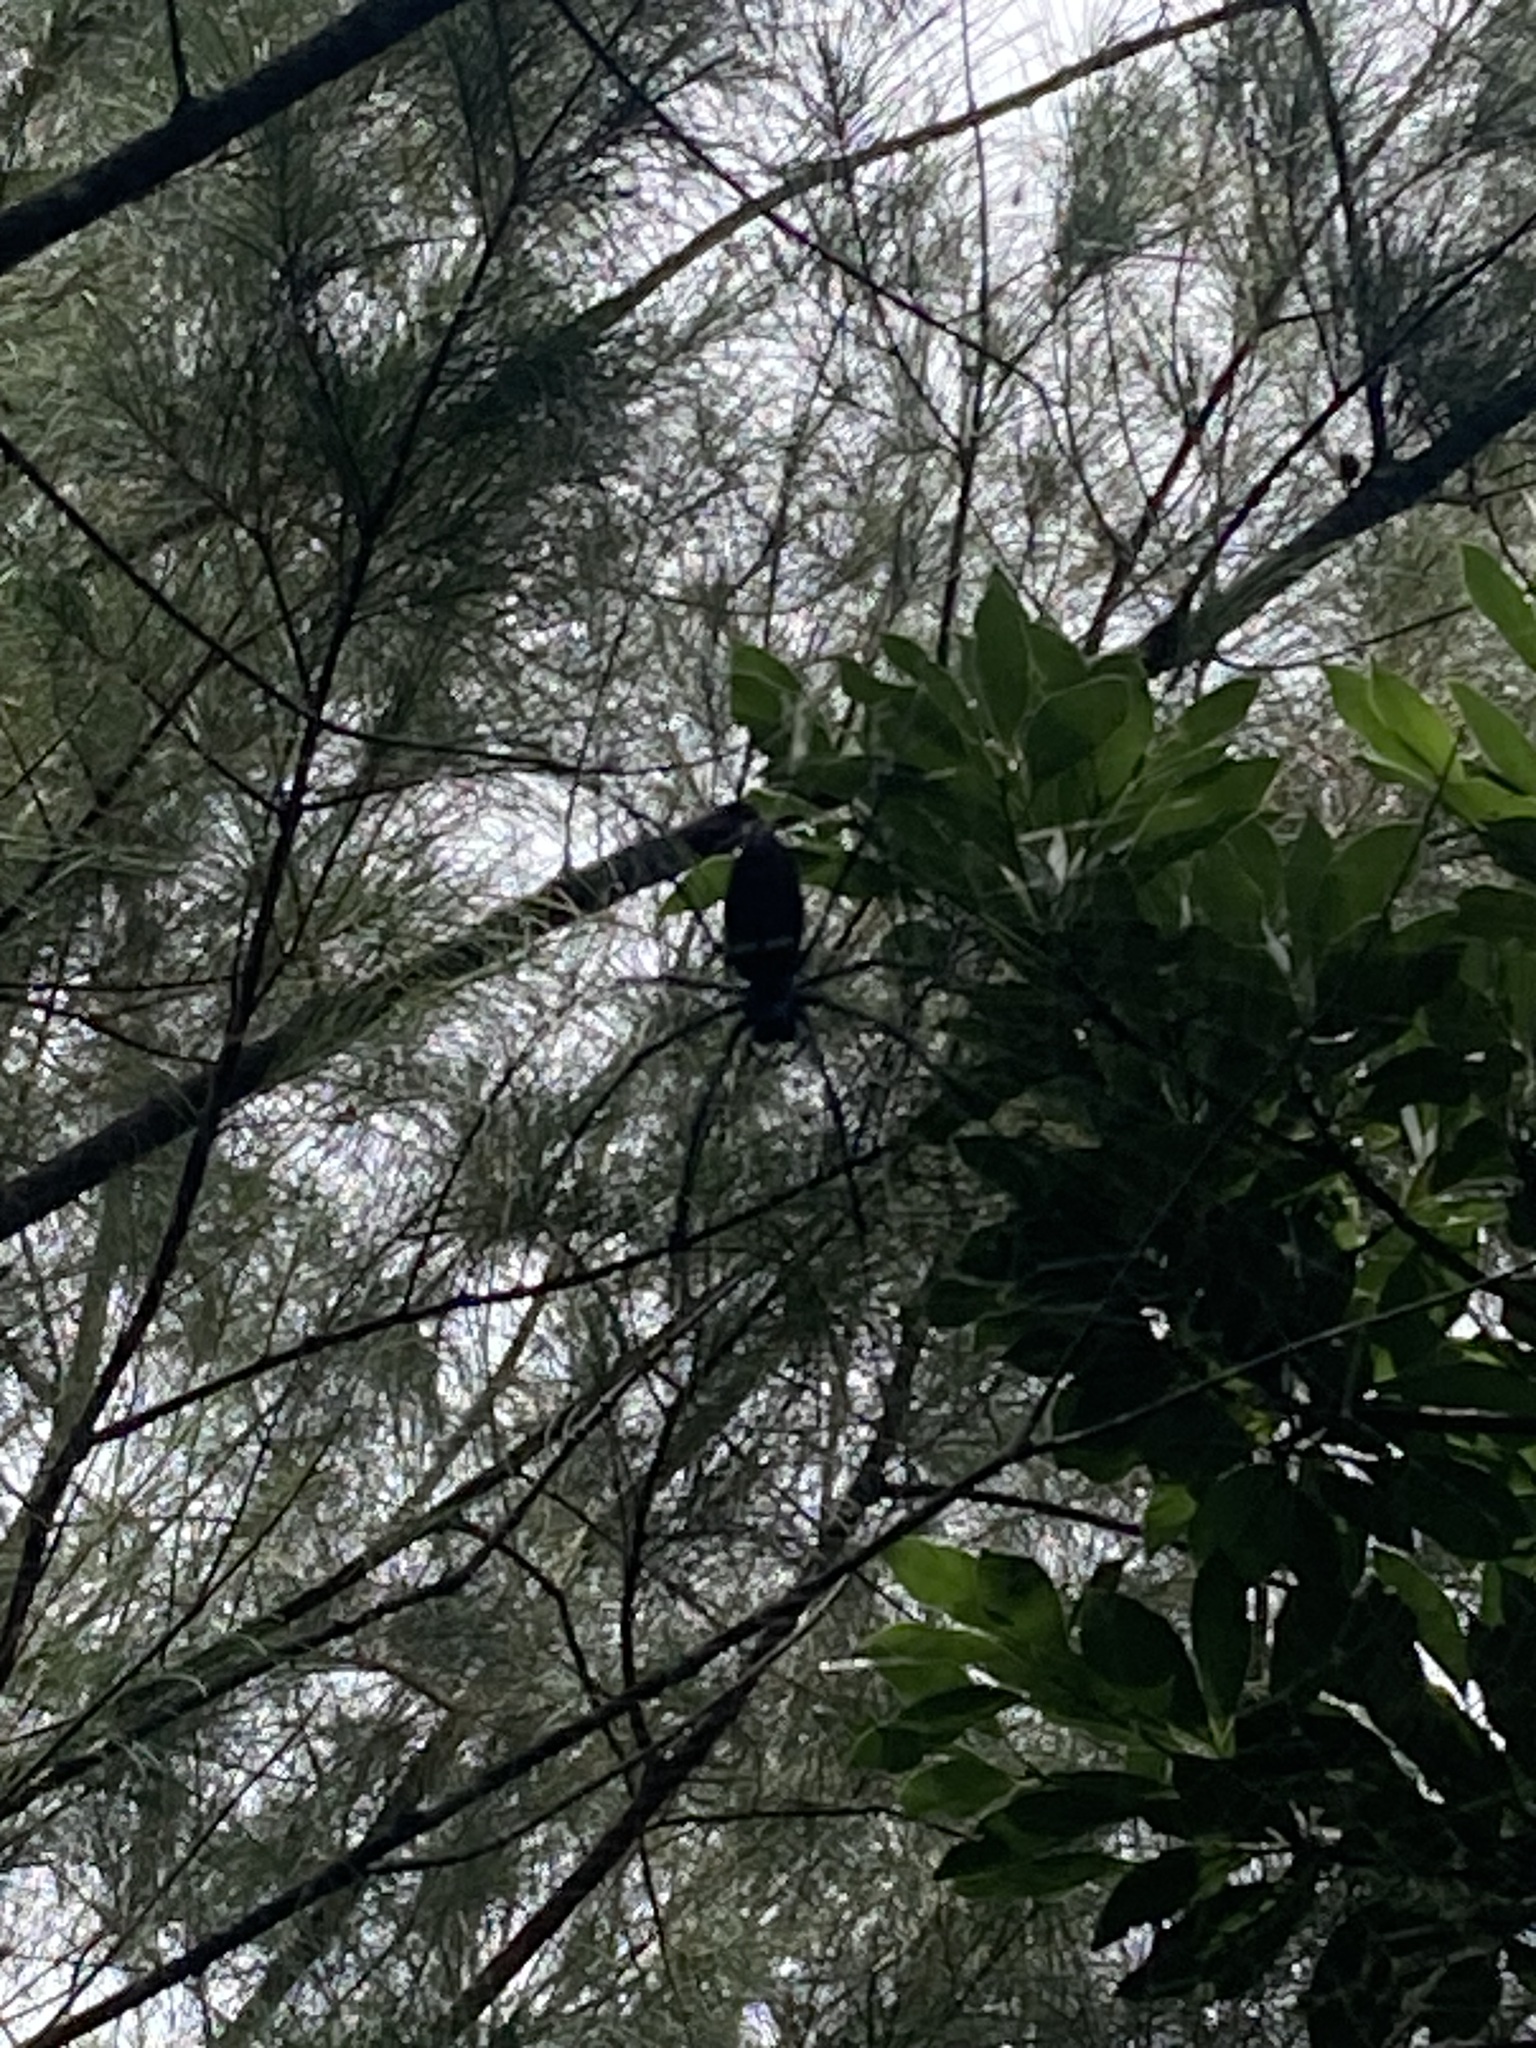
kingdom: Animalia
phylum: Arthropoda
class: Arachnida
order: Araneae
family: Araneidae
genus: Nephila
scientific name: Nephila pilipes
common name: Giant golden orb weaver
